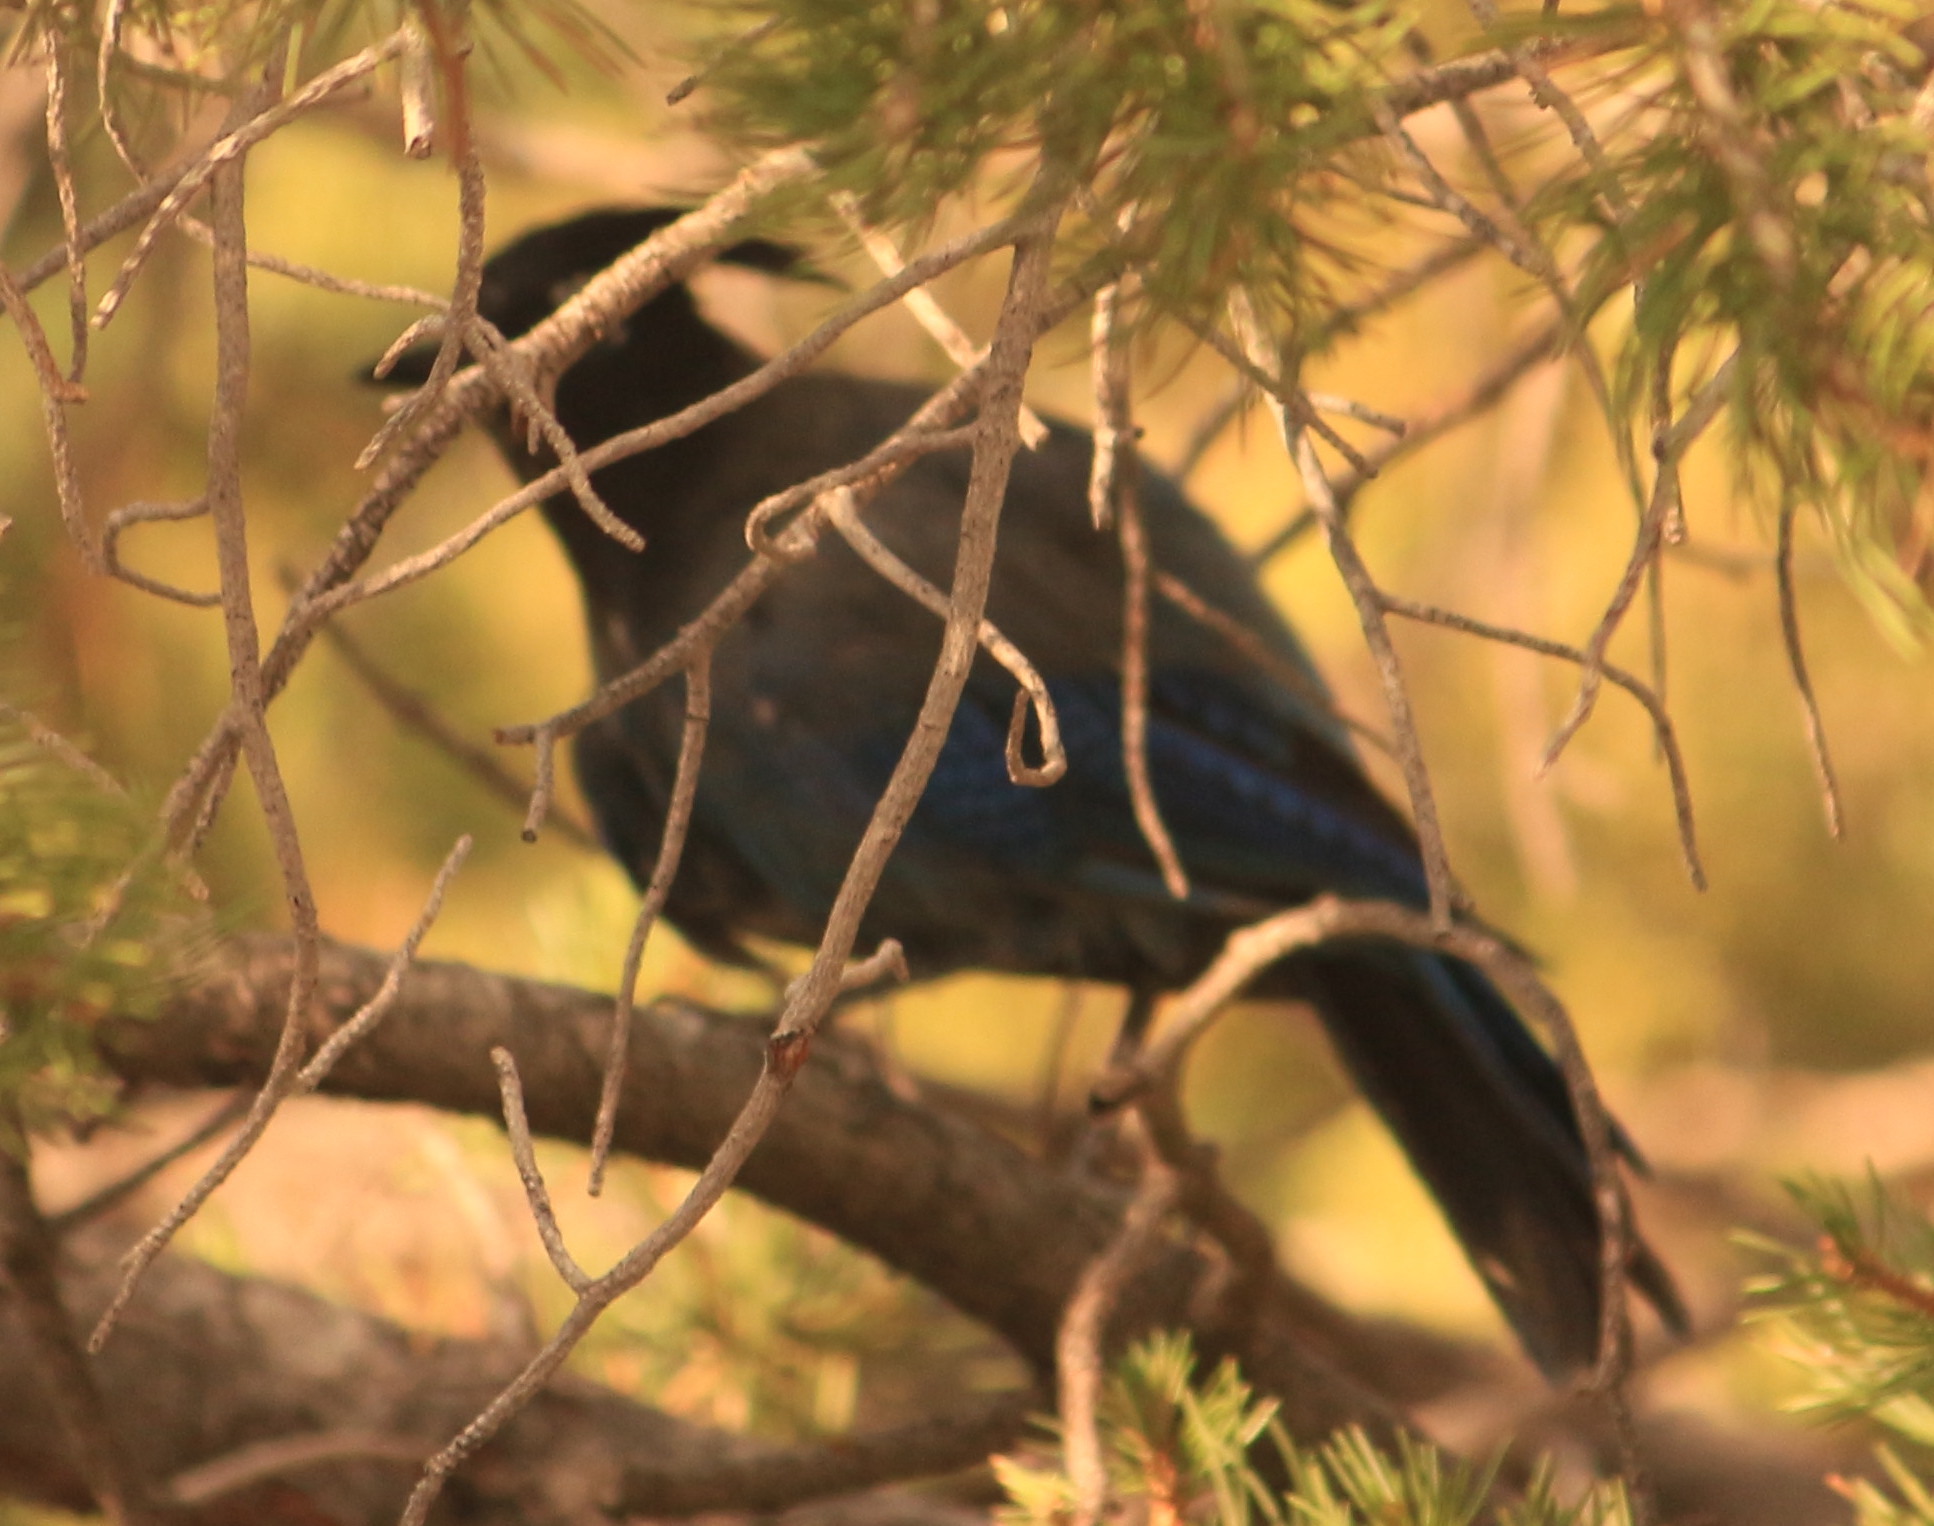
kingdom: Animalia
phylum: Chordata
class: Aves
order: Passeriformes
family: Corvidae
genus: Cyanocitta
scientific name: Cyanocitta stelleri
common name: Steller's jay
